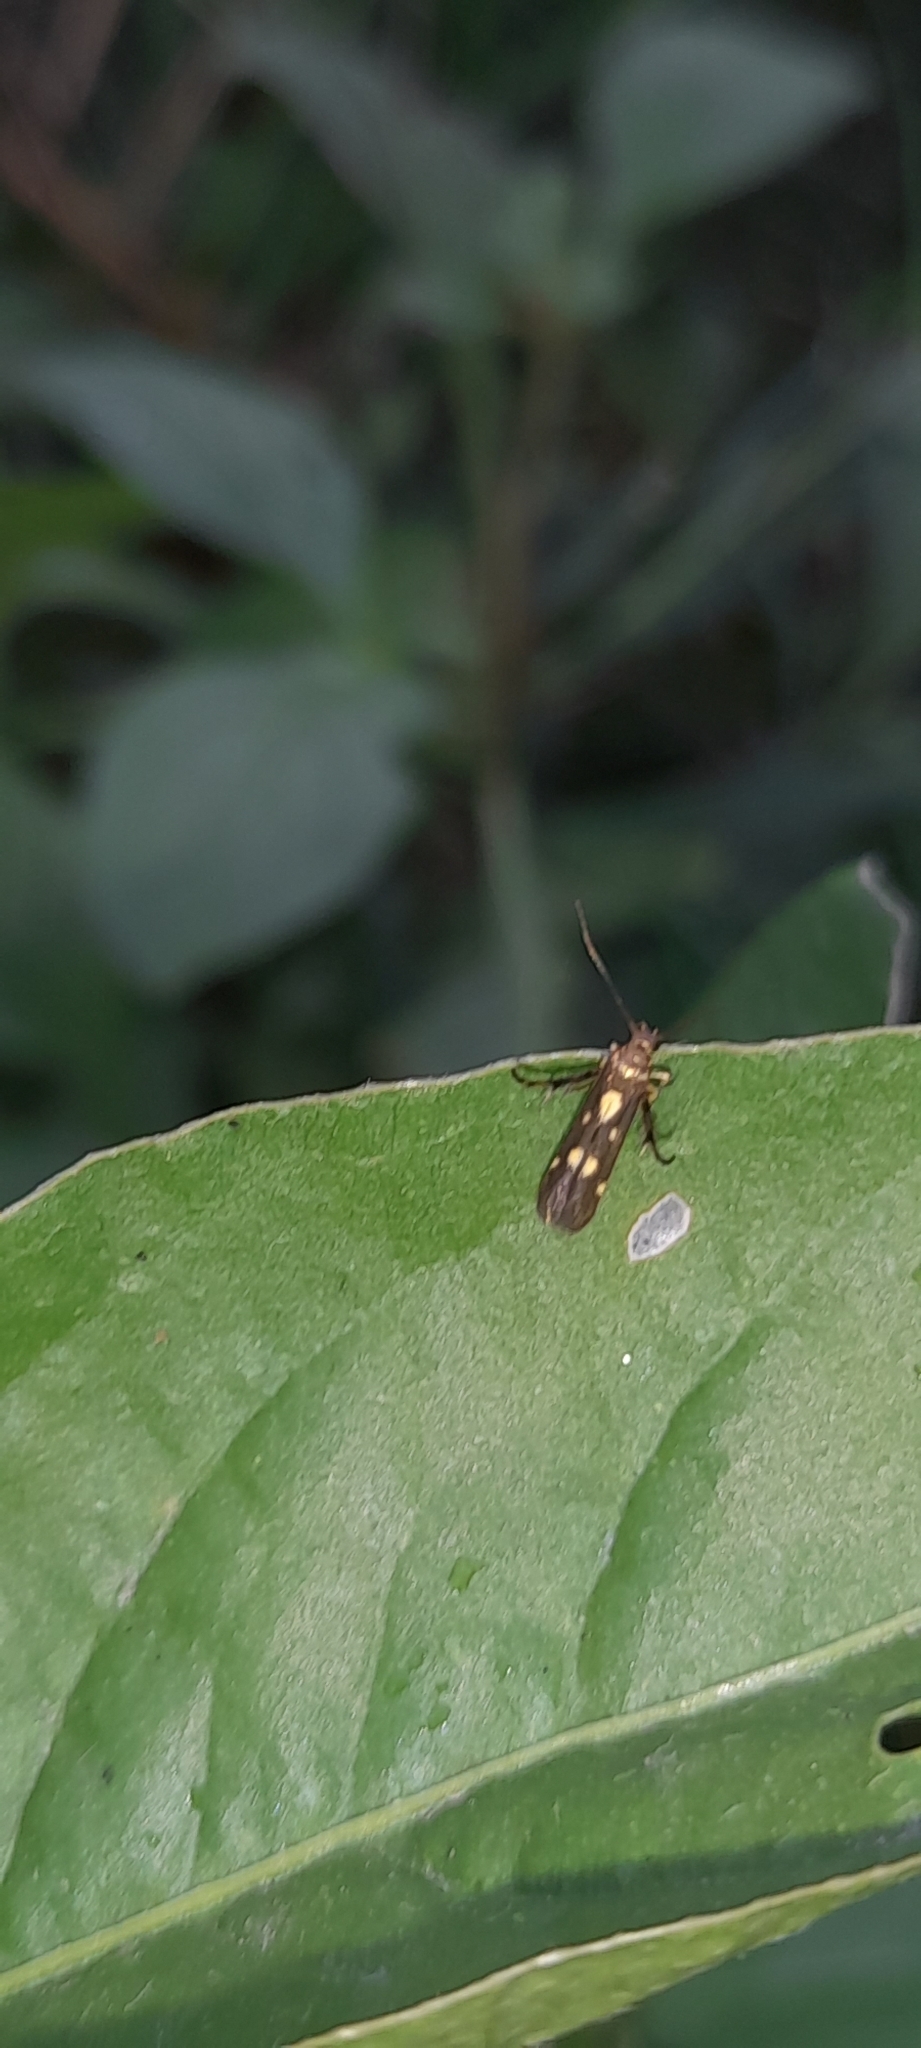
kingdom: Animalia
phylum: Arthropoda
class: Insecta
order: Lepidoptera
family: Scythrididae
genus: Eretmocera
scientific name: Eretmocera impactella
